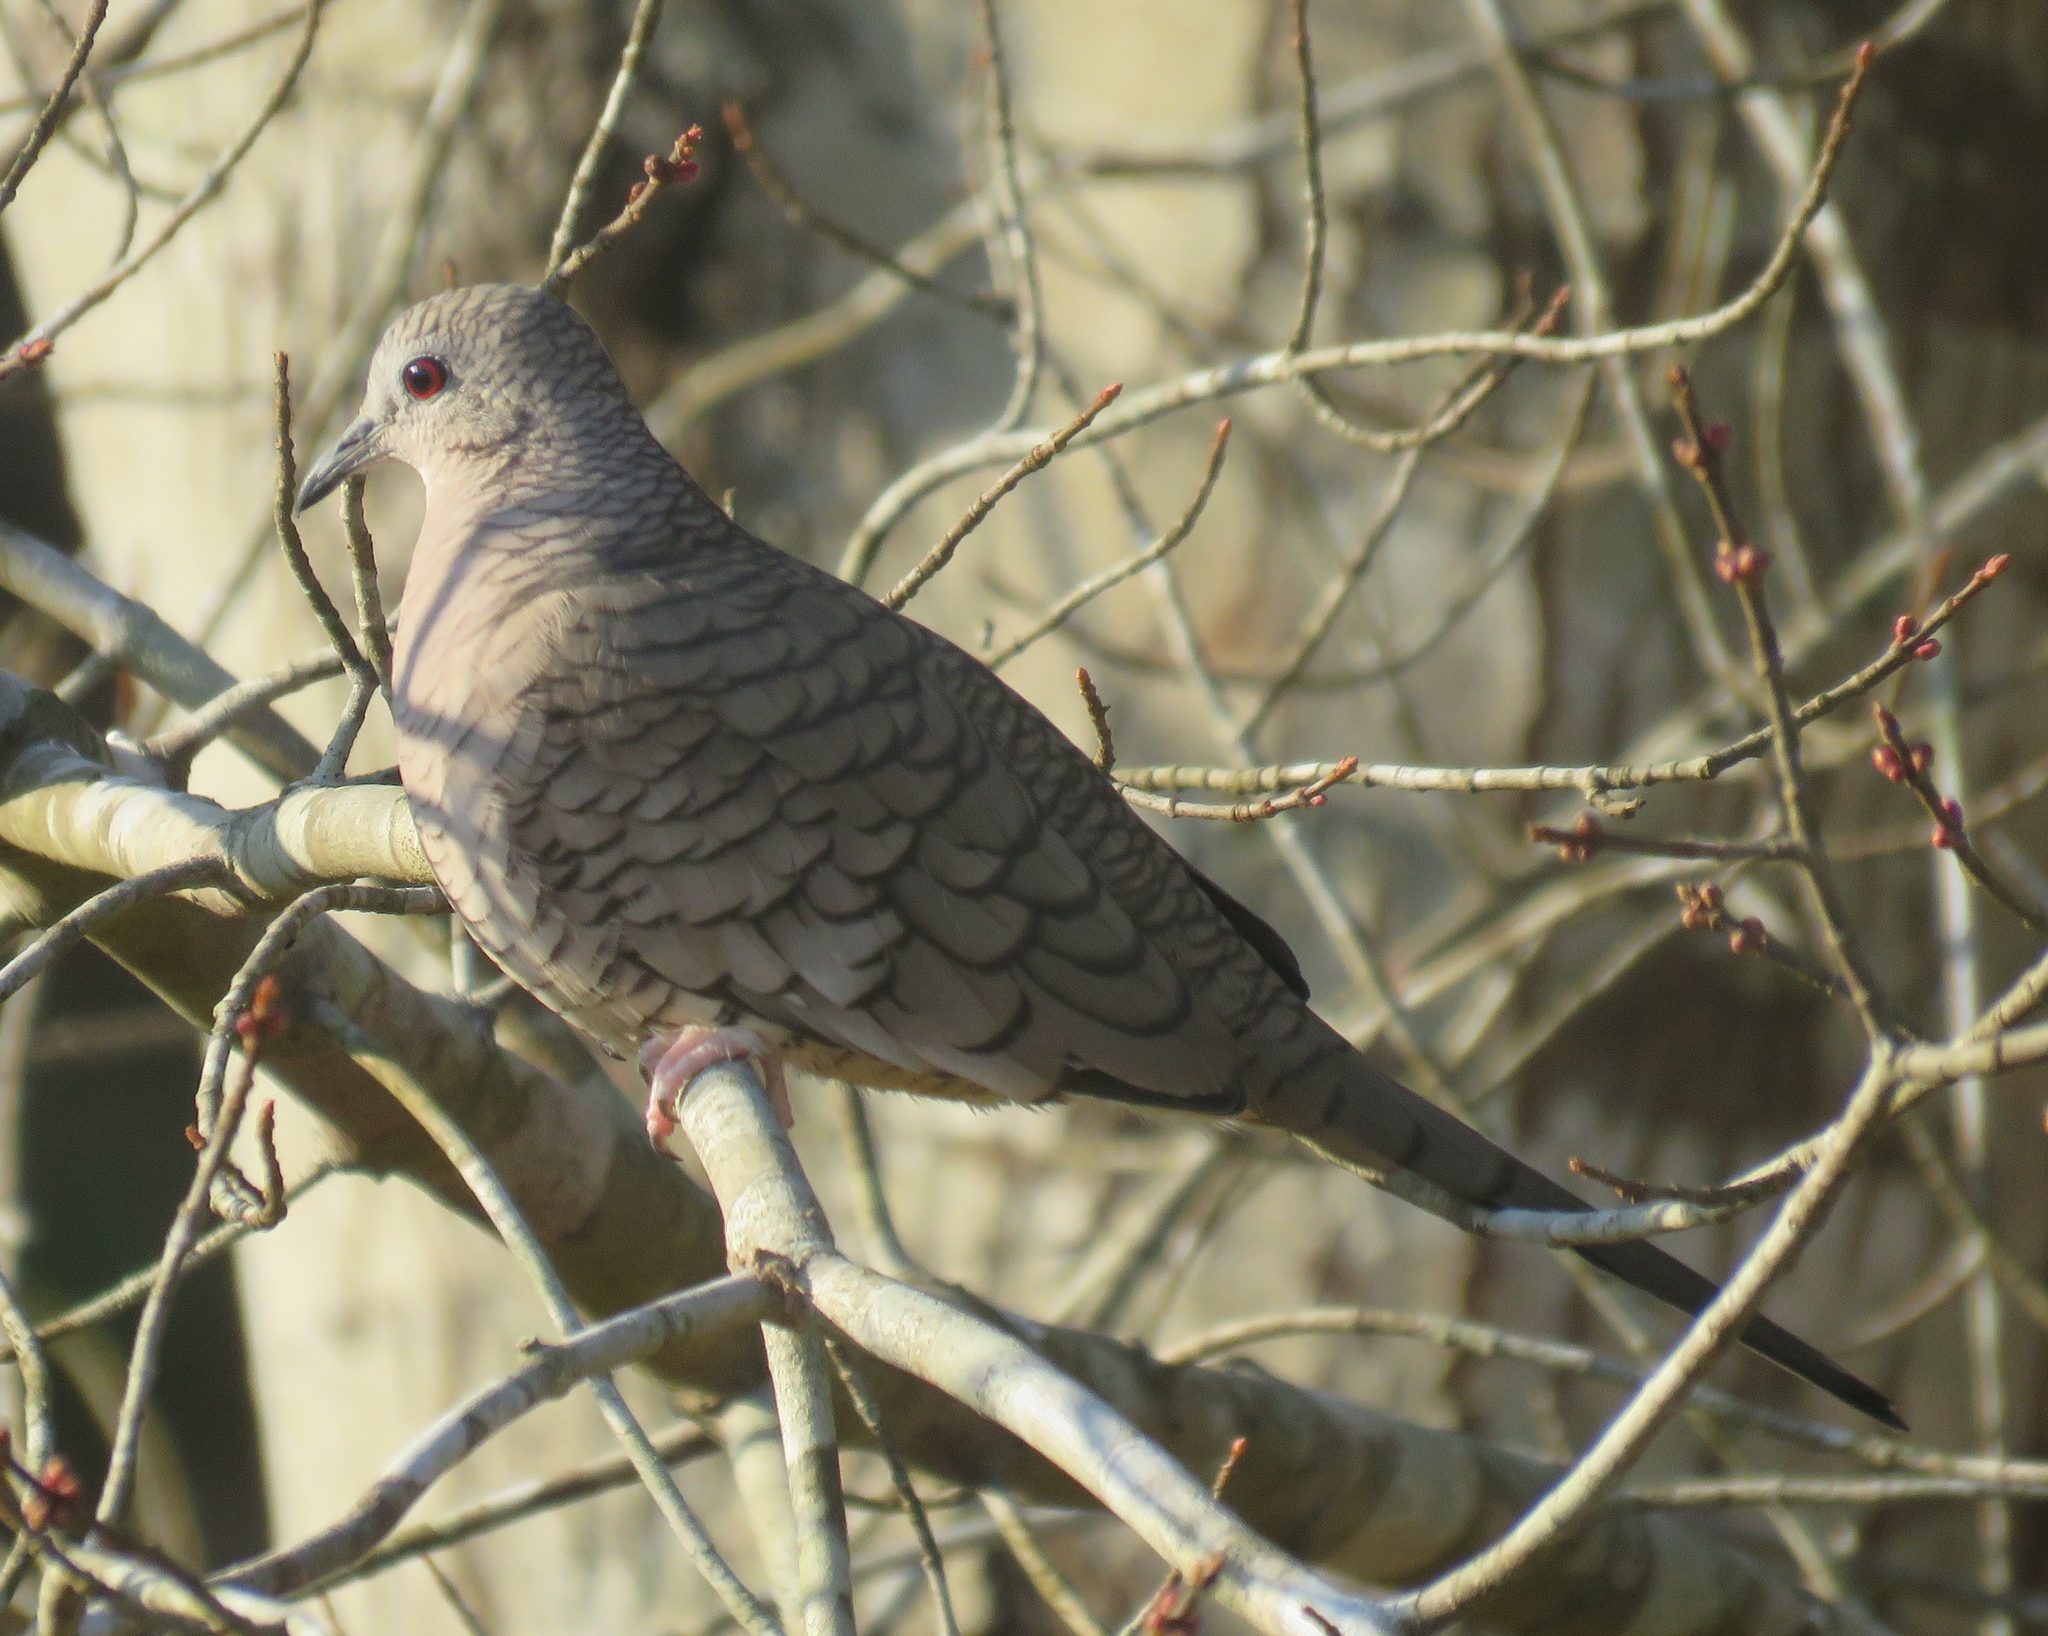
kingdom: Animalia
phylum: Chordata
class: Aves
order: Columbiformes
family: Columbidae
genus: Columbina
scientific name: Columbina inca
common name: Inca dove
